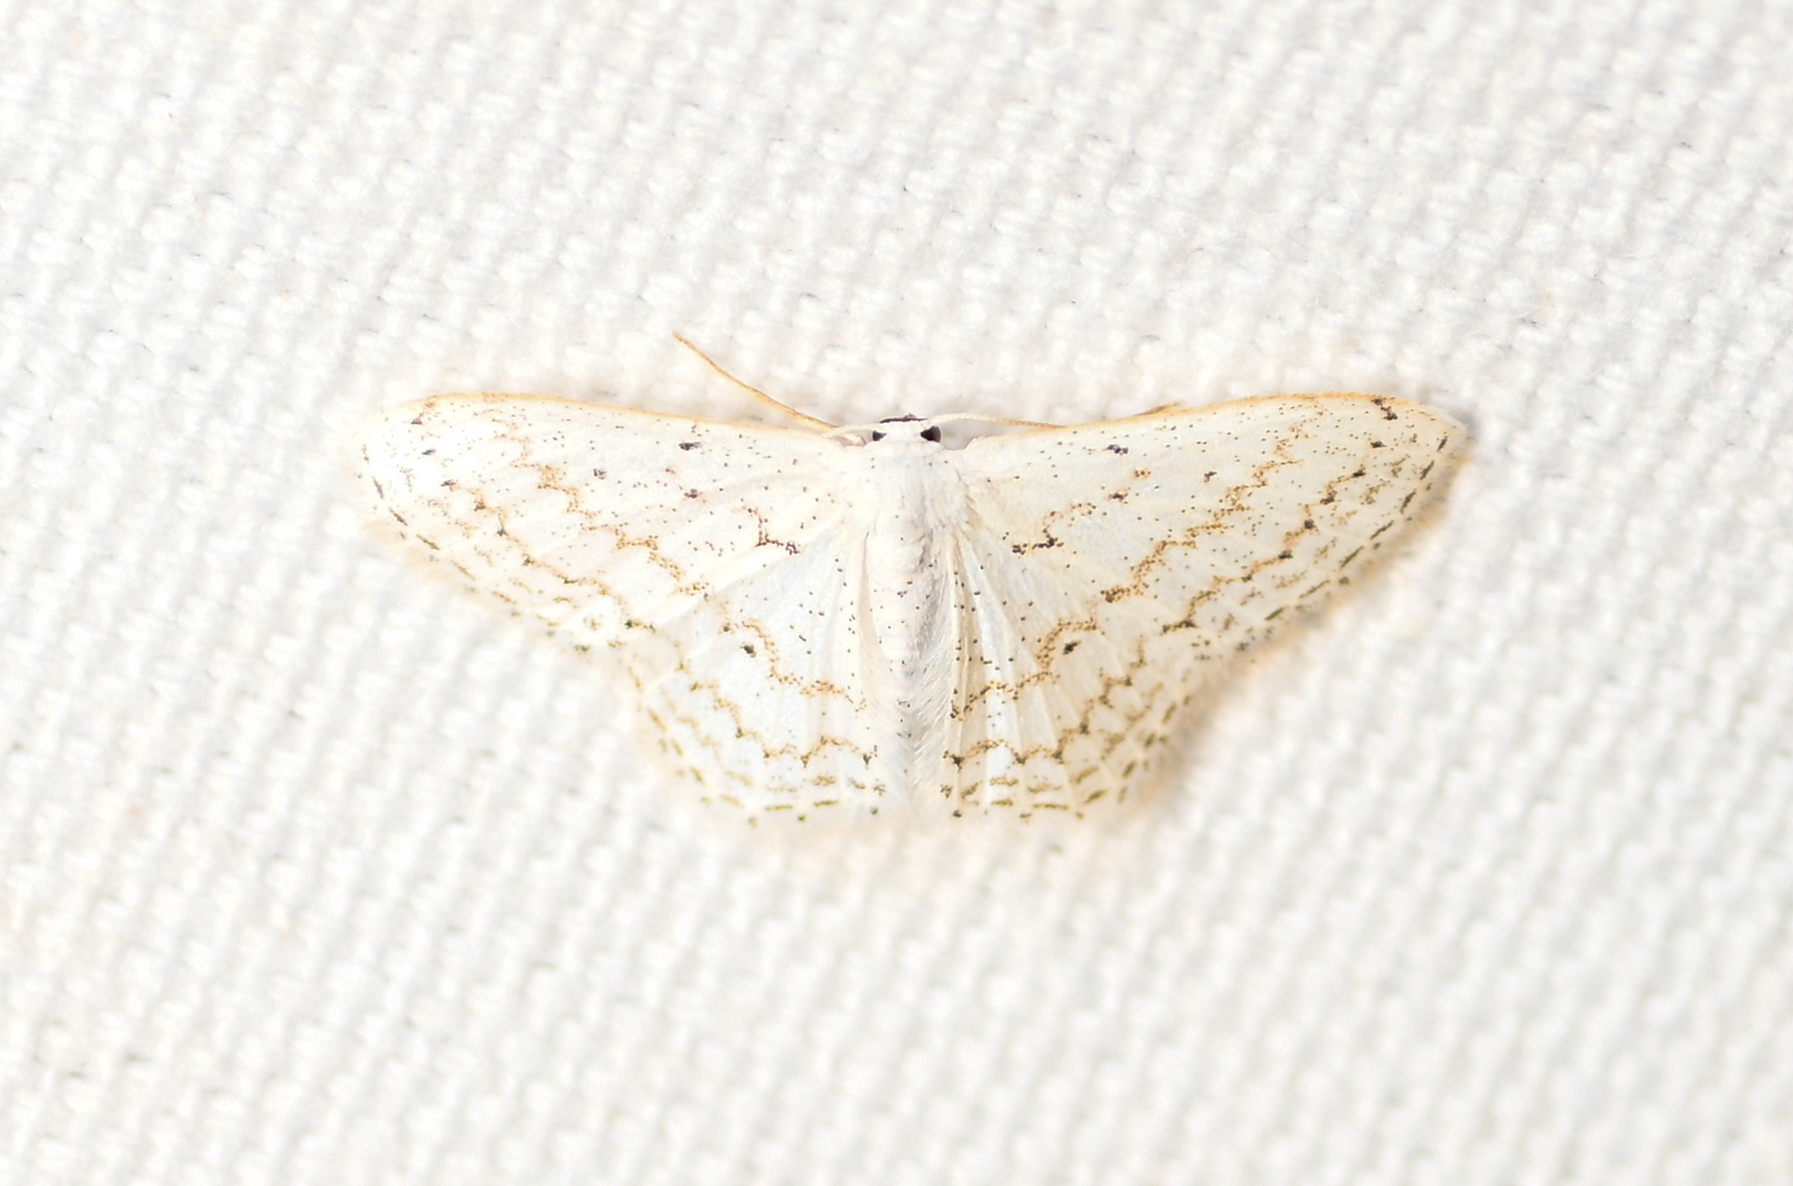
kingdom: Animalia
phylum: Arthropoda
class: Insecta
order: Lepidoptera
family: Geometridae
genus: Idaea
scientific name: Idaea tacturata
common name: Dot-lined wave
